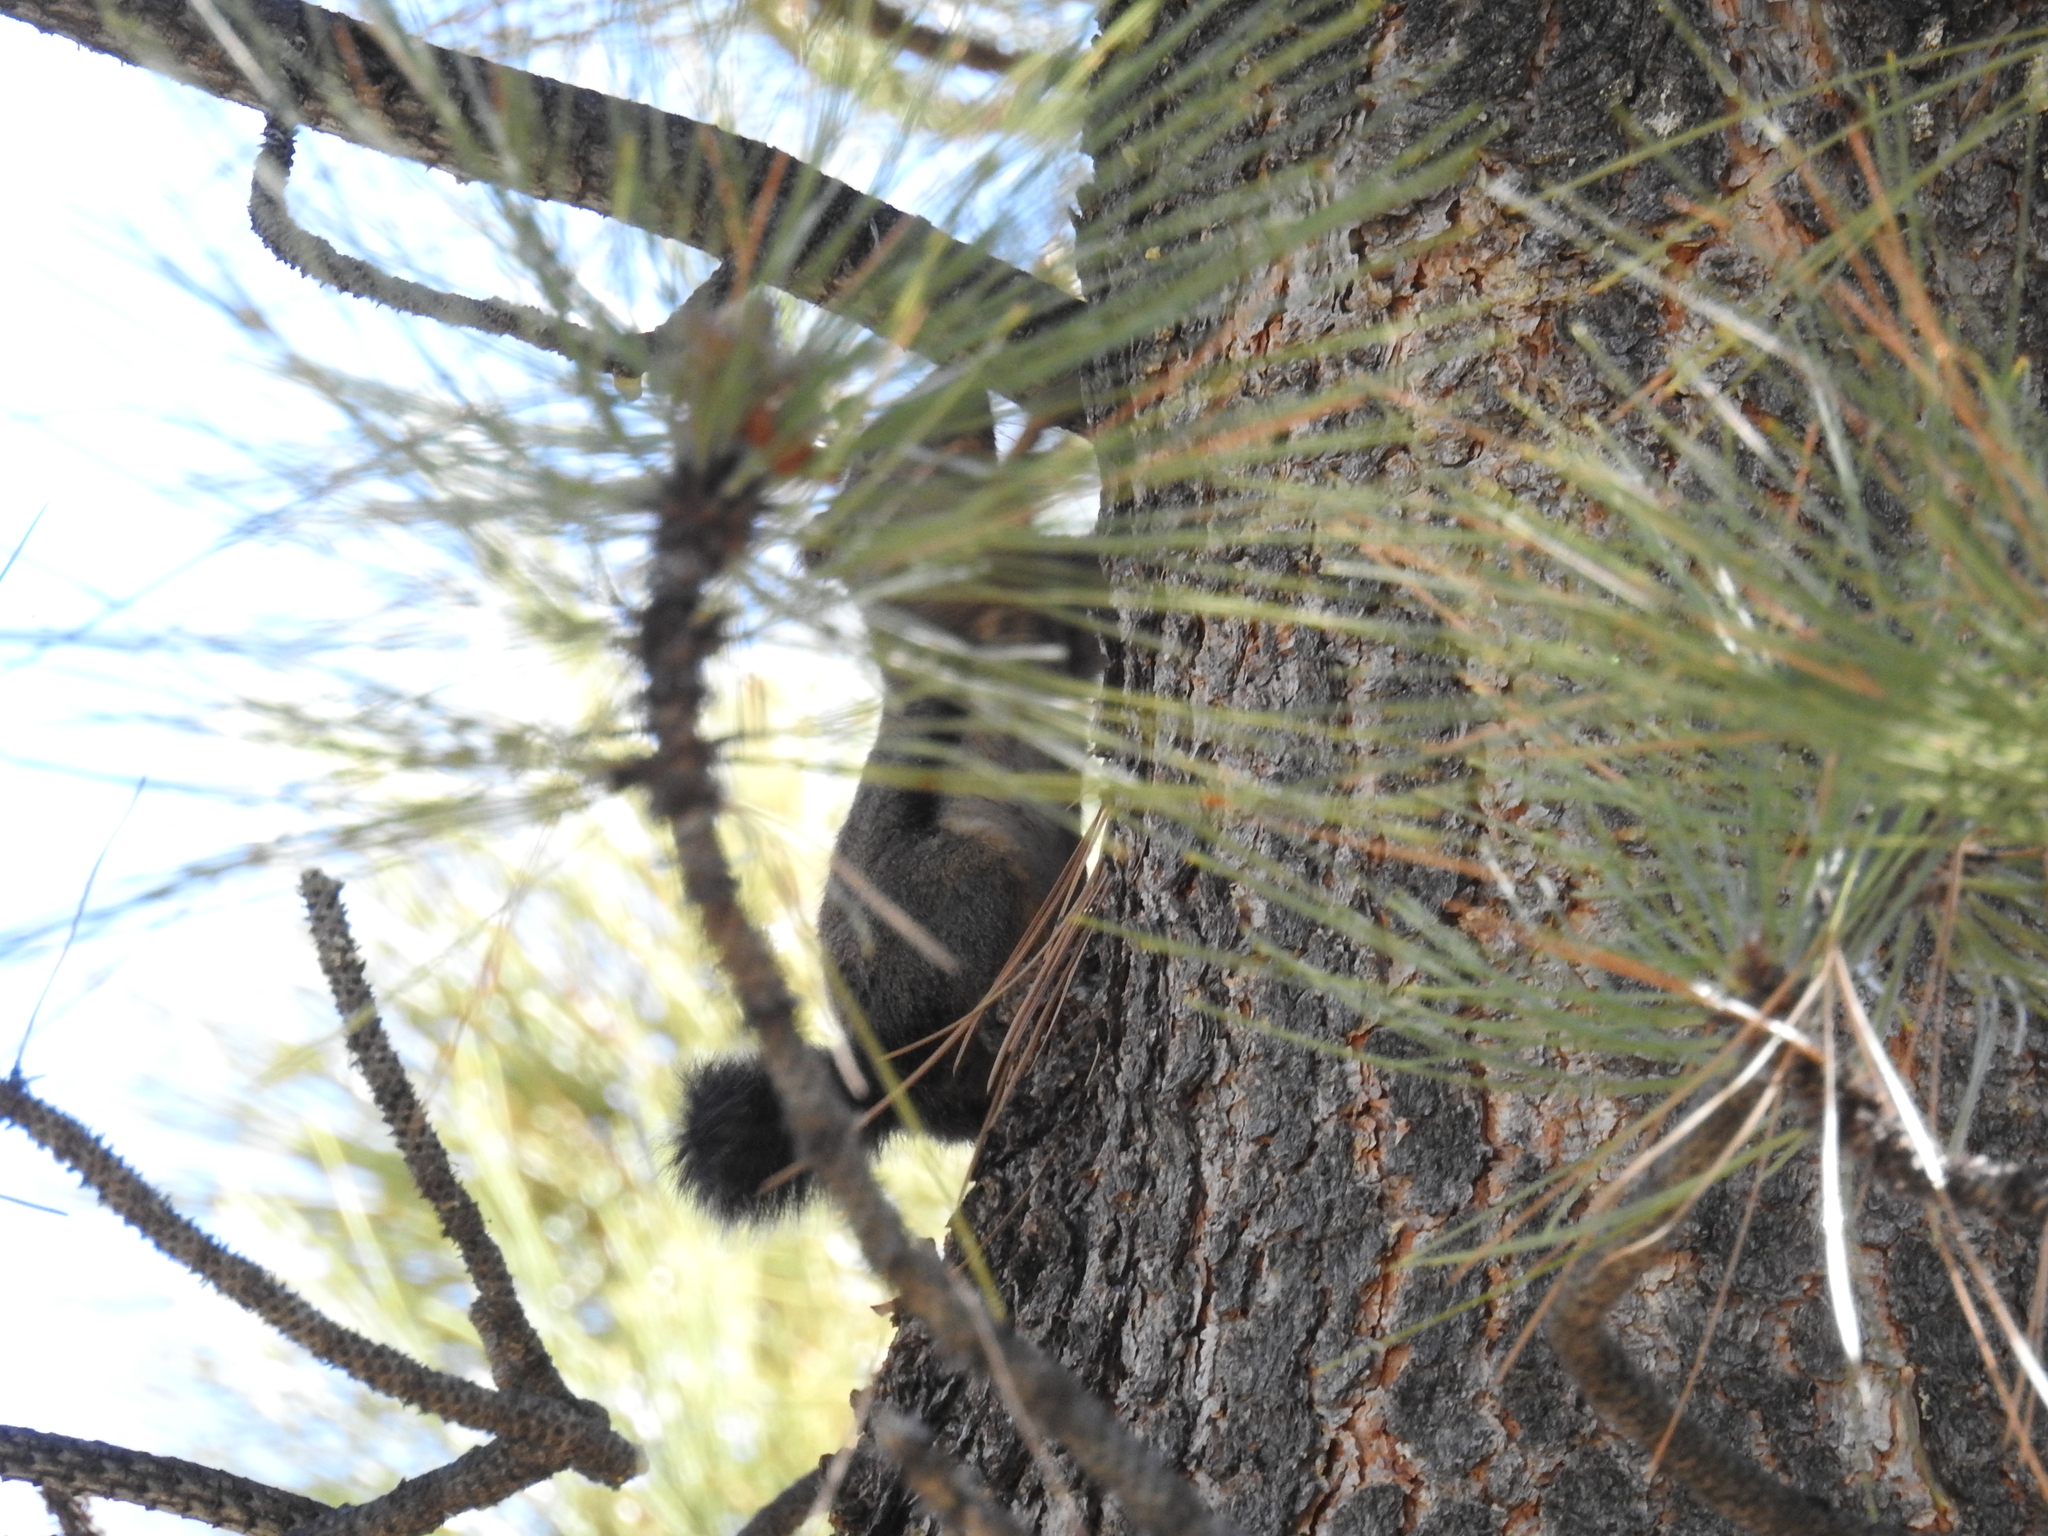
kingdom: Animalia
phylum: Chordata
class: Mammalia
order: Rodentia
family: Sciuridae
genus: Tamiasciurus
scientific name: Tamiasciurus douglasii
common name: Douglas's squirrel
